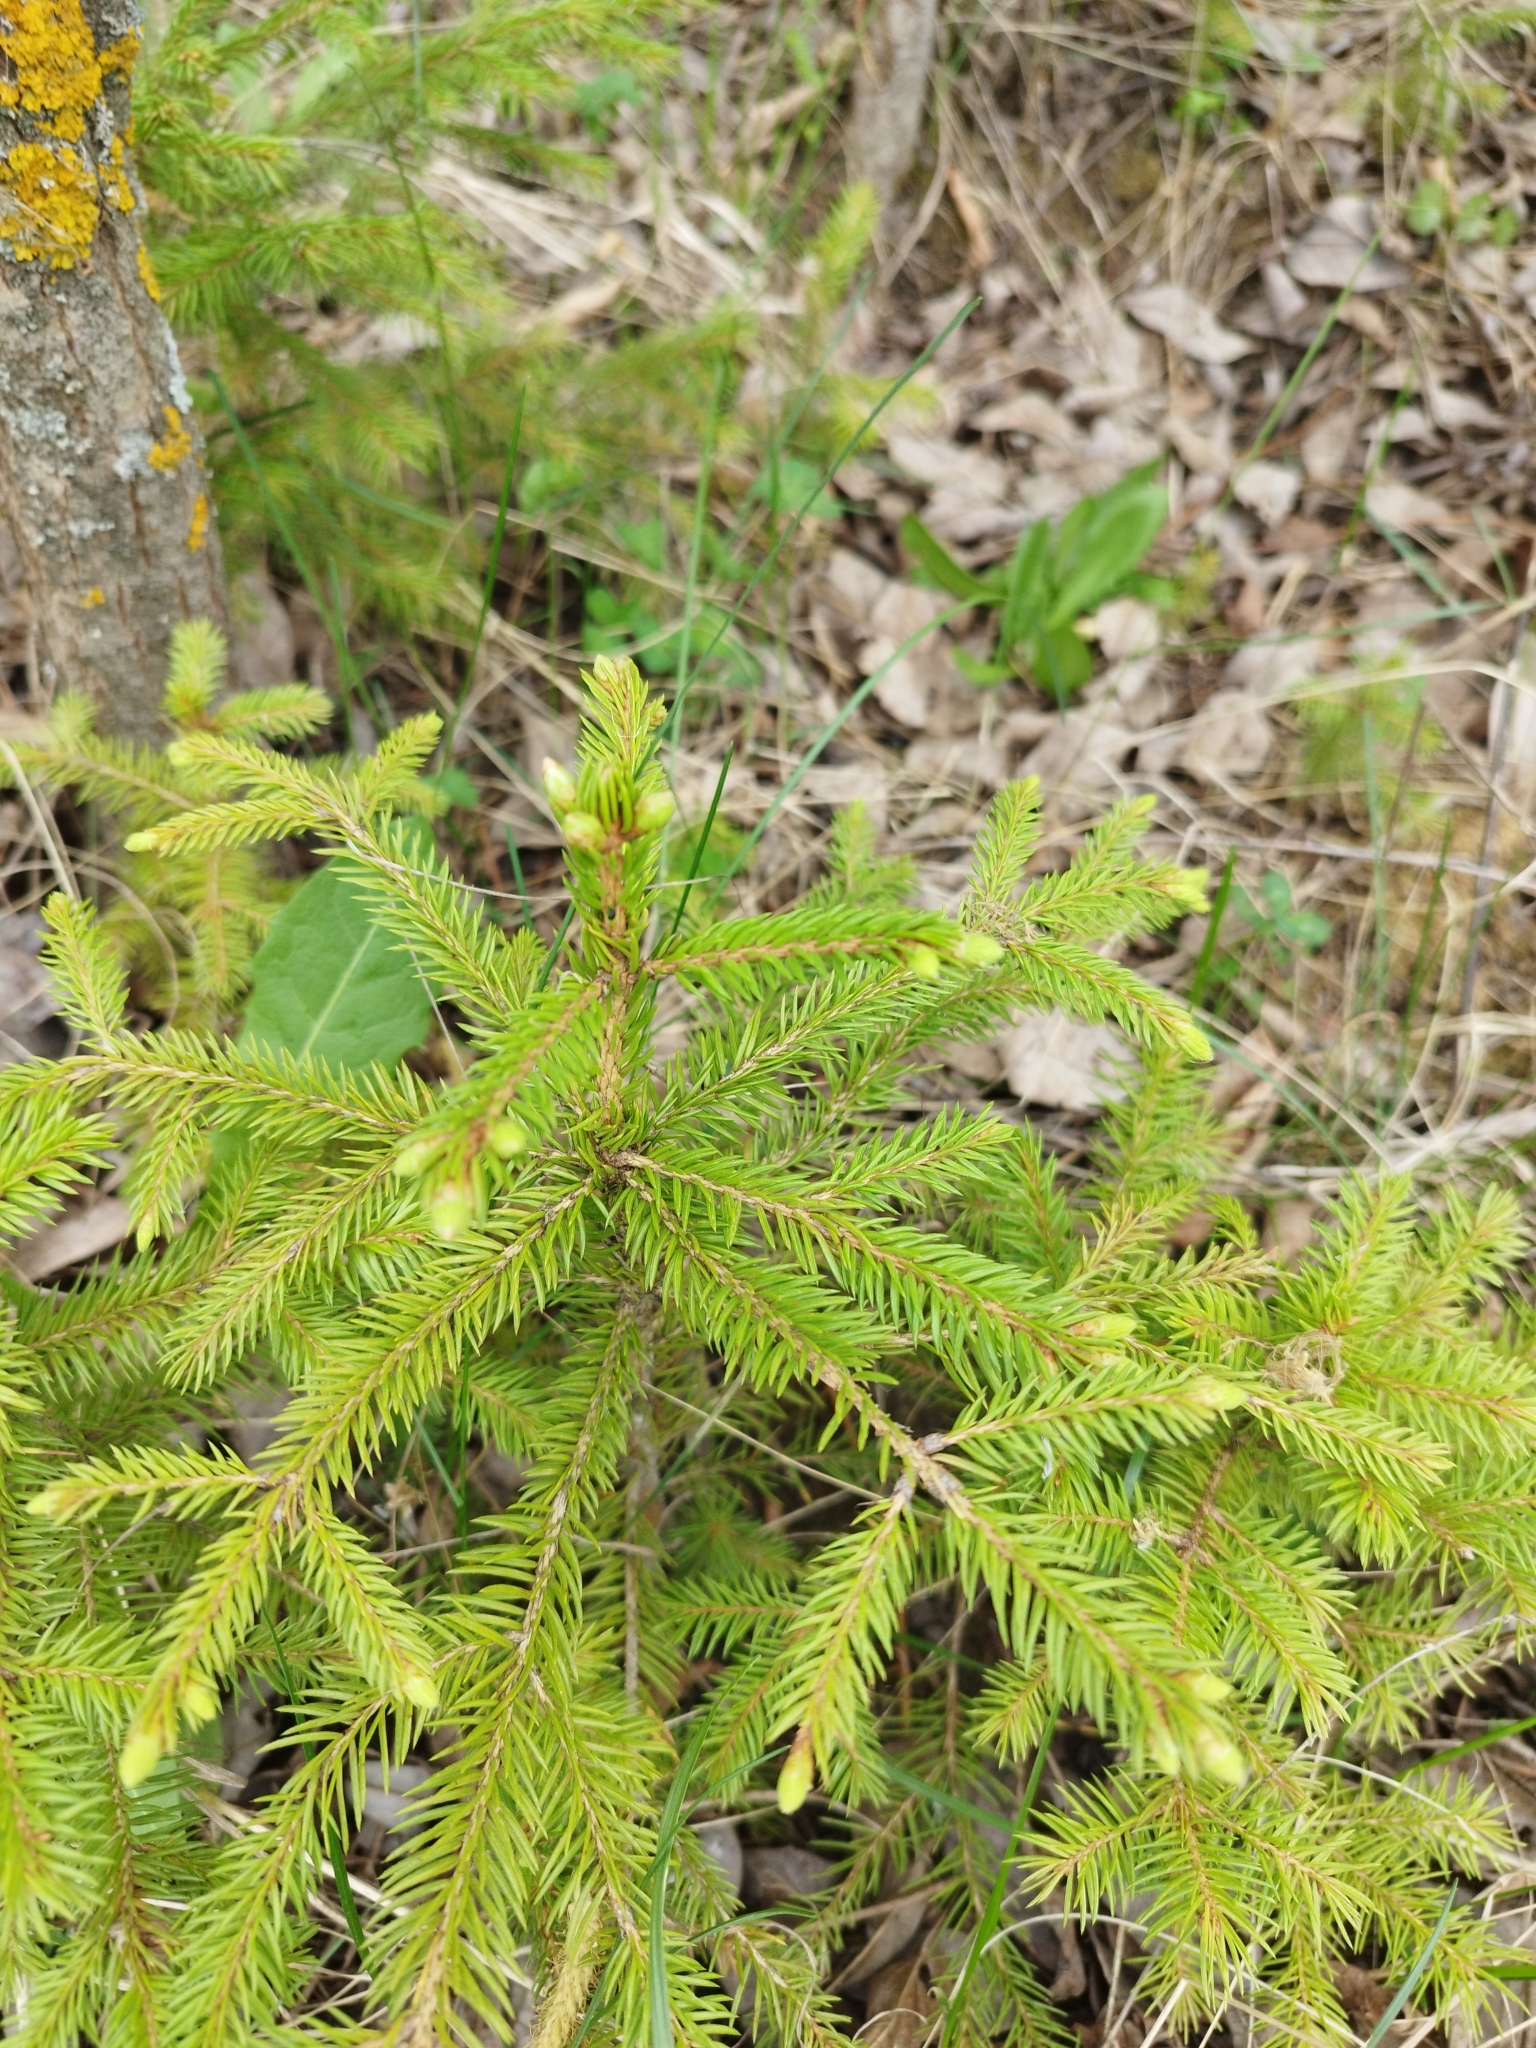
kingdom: Plantae
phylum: Tracheophyta
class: Pinopsida
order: Pinales
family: Pinaceae
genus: Picea
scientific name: Picea abies
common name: Norway spruce
